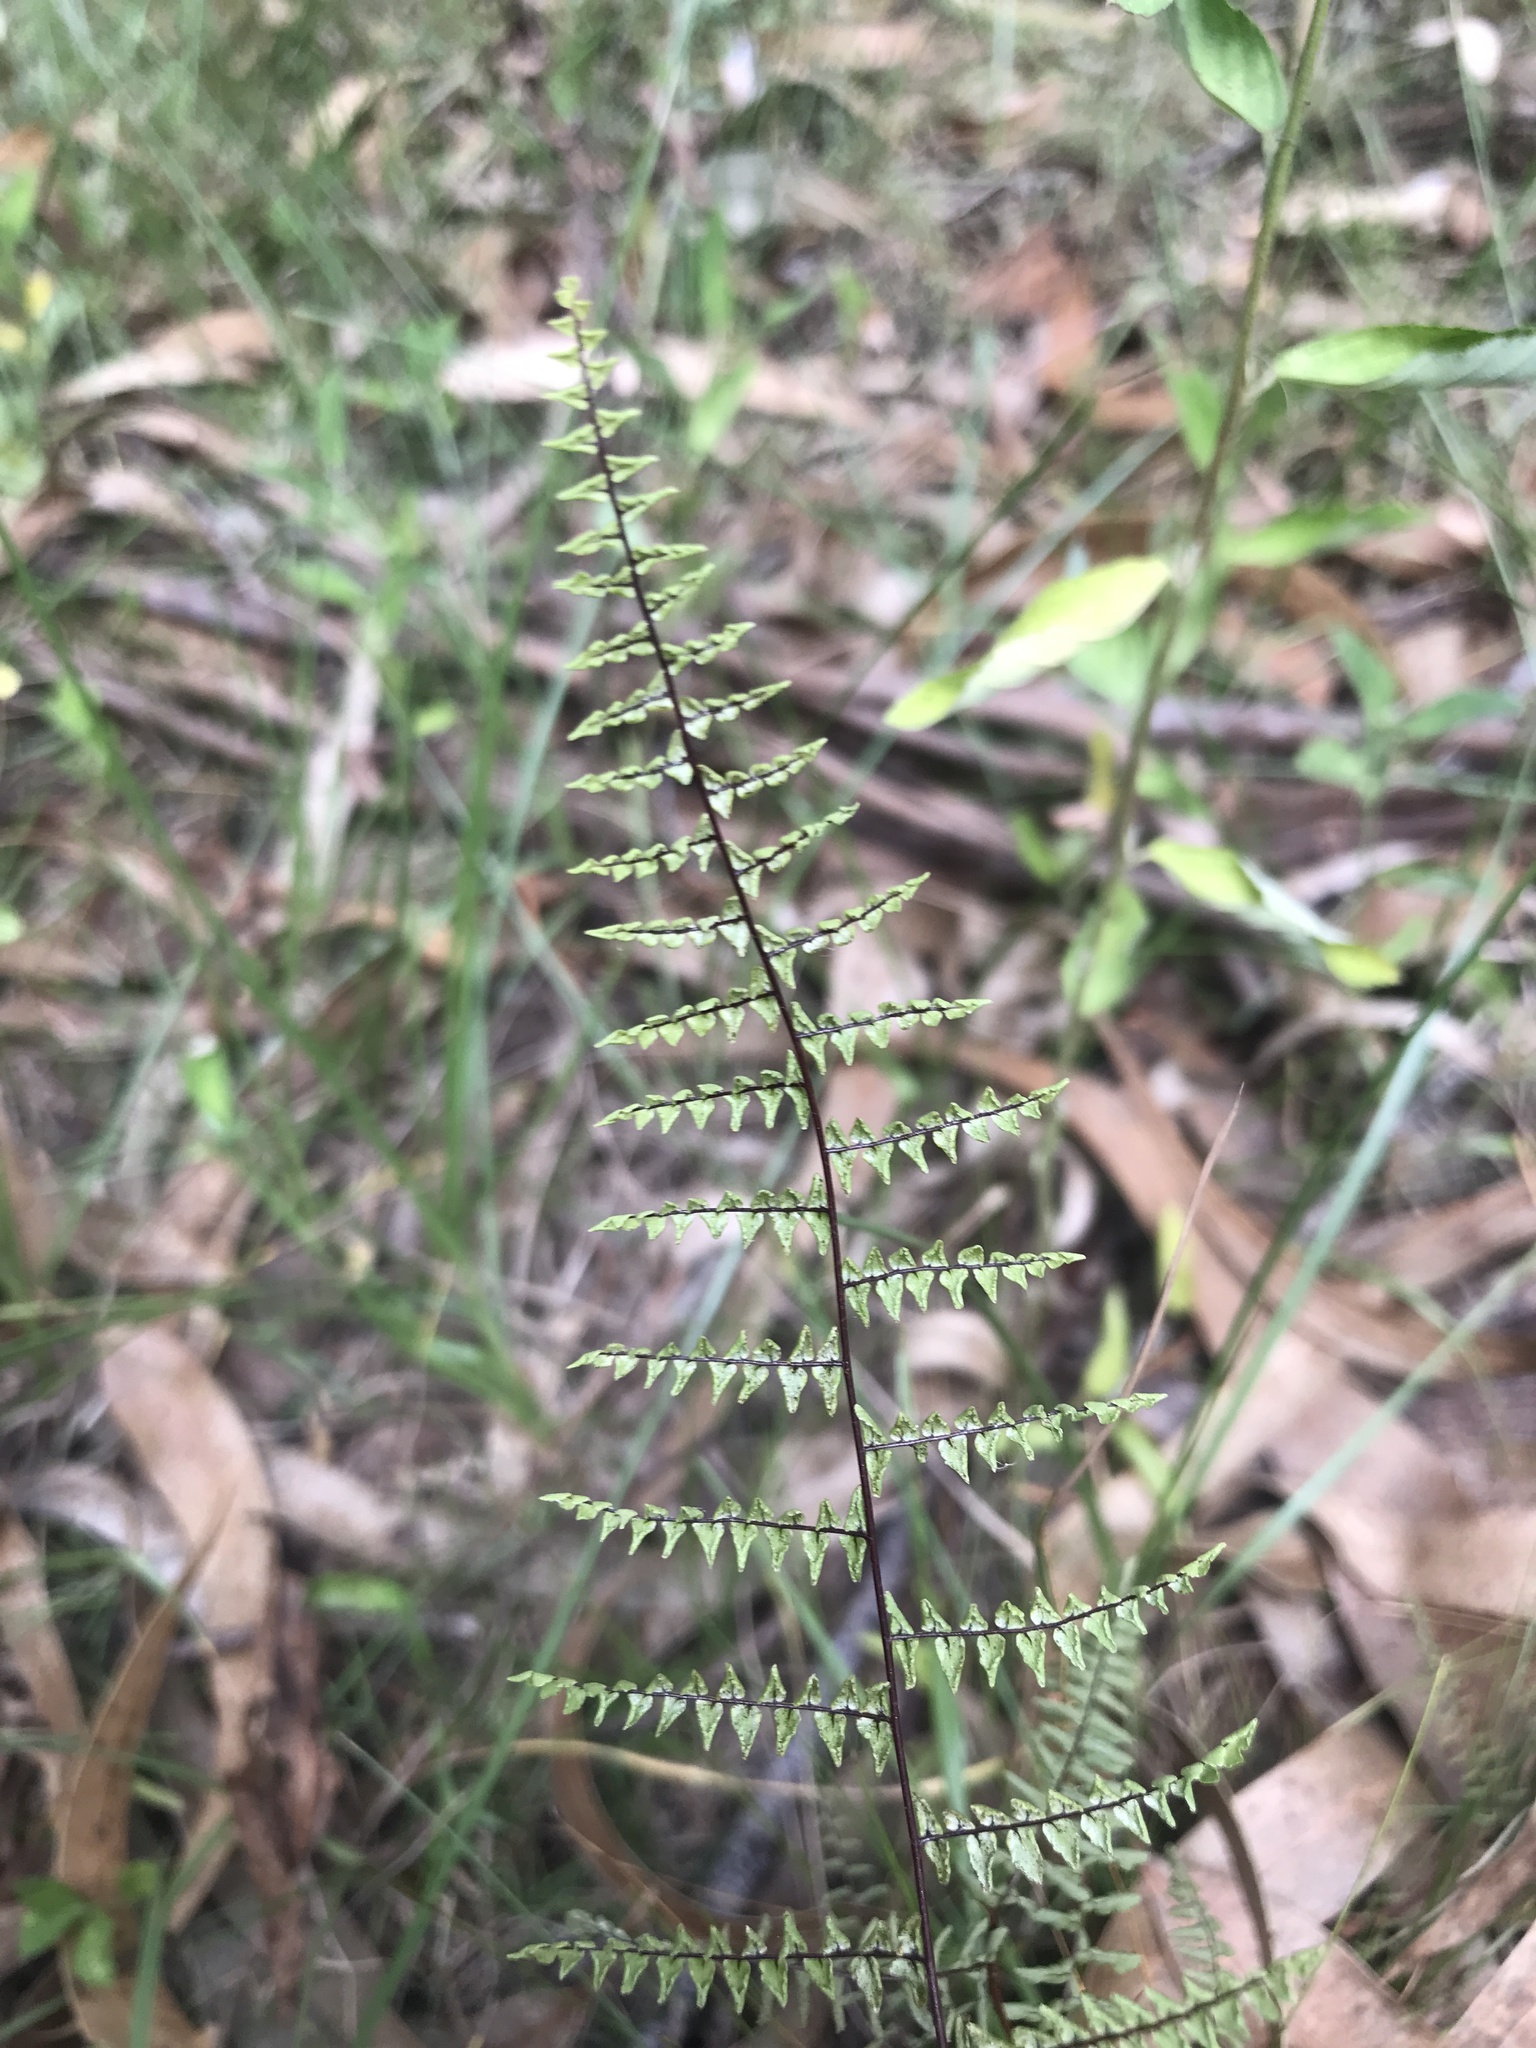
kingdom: Plantae
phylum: Tracheophyta
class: Polypodiopsida
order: Polypodiales
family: Pteridaceae
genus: Adiantopsis
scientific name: Adiantopsis chlorophylla
